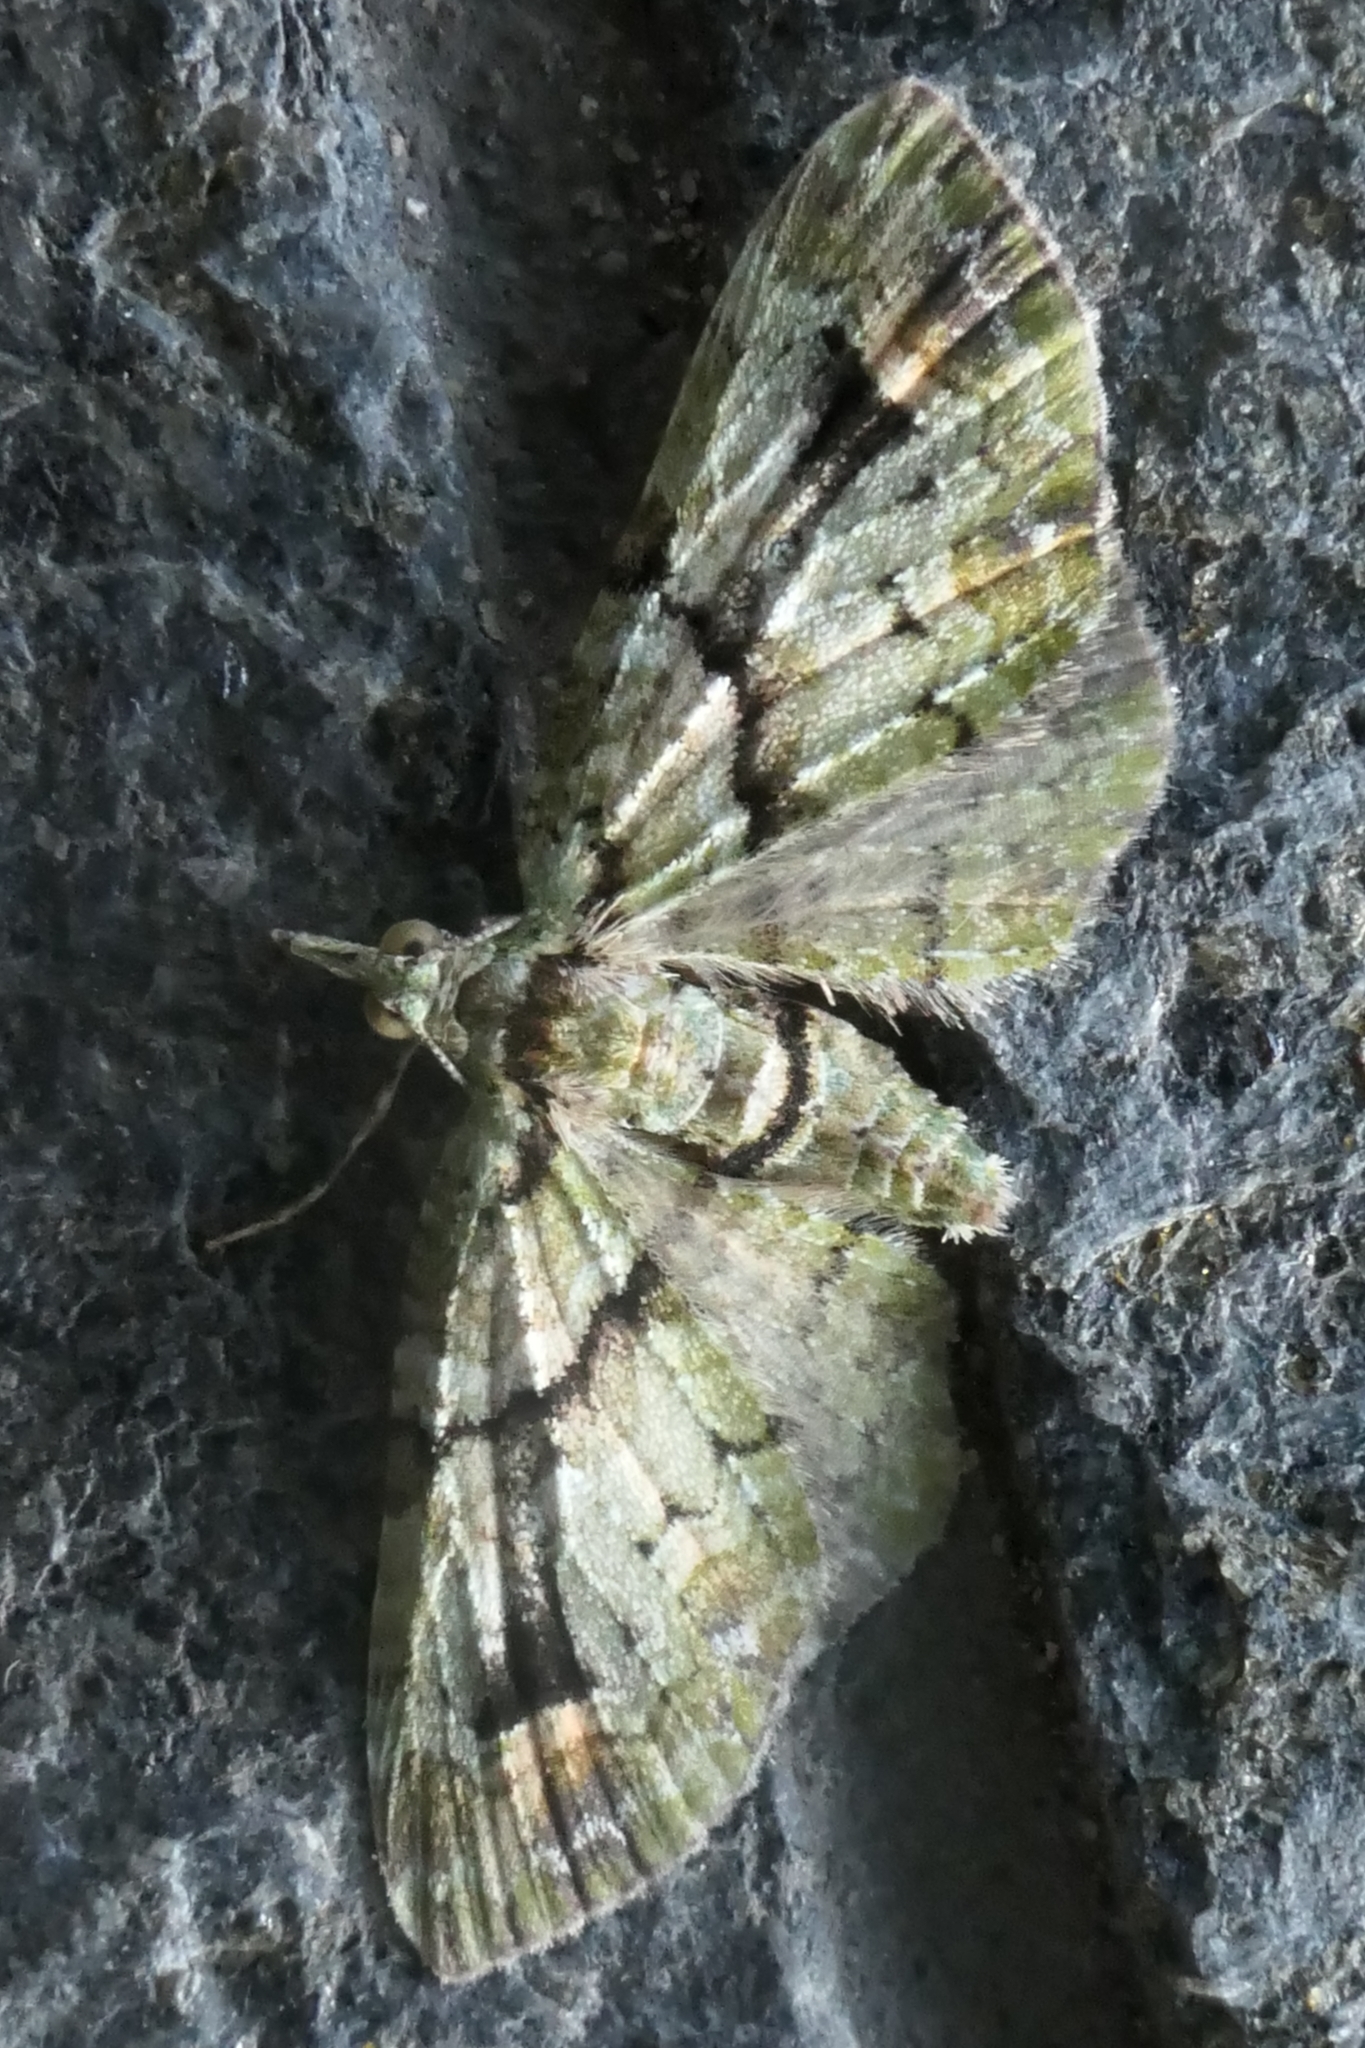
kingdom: Animalia
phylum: Arthropoda
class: Insecta
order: Lepidoptera
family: Geometridae
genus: Idaea
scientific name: Idaea mutanda
